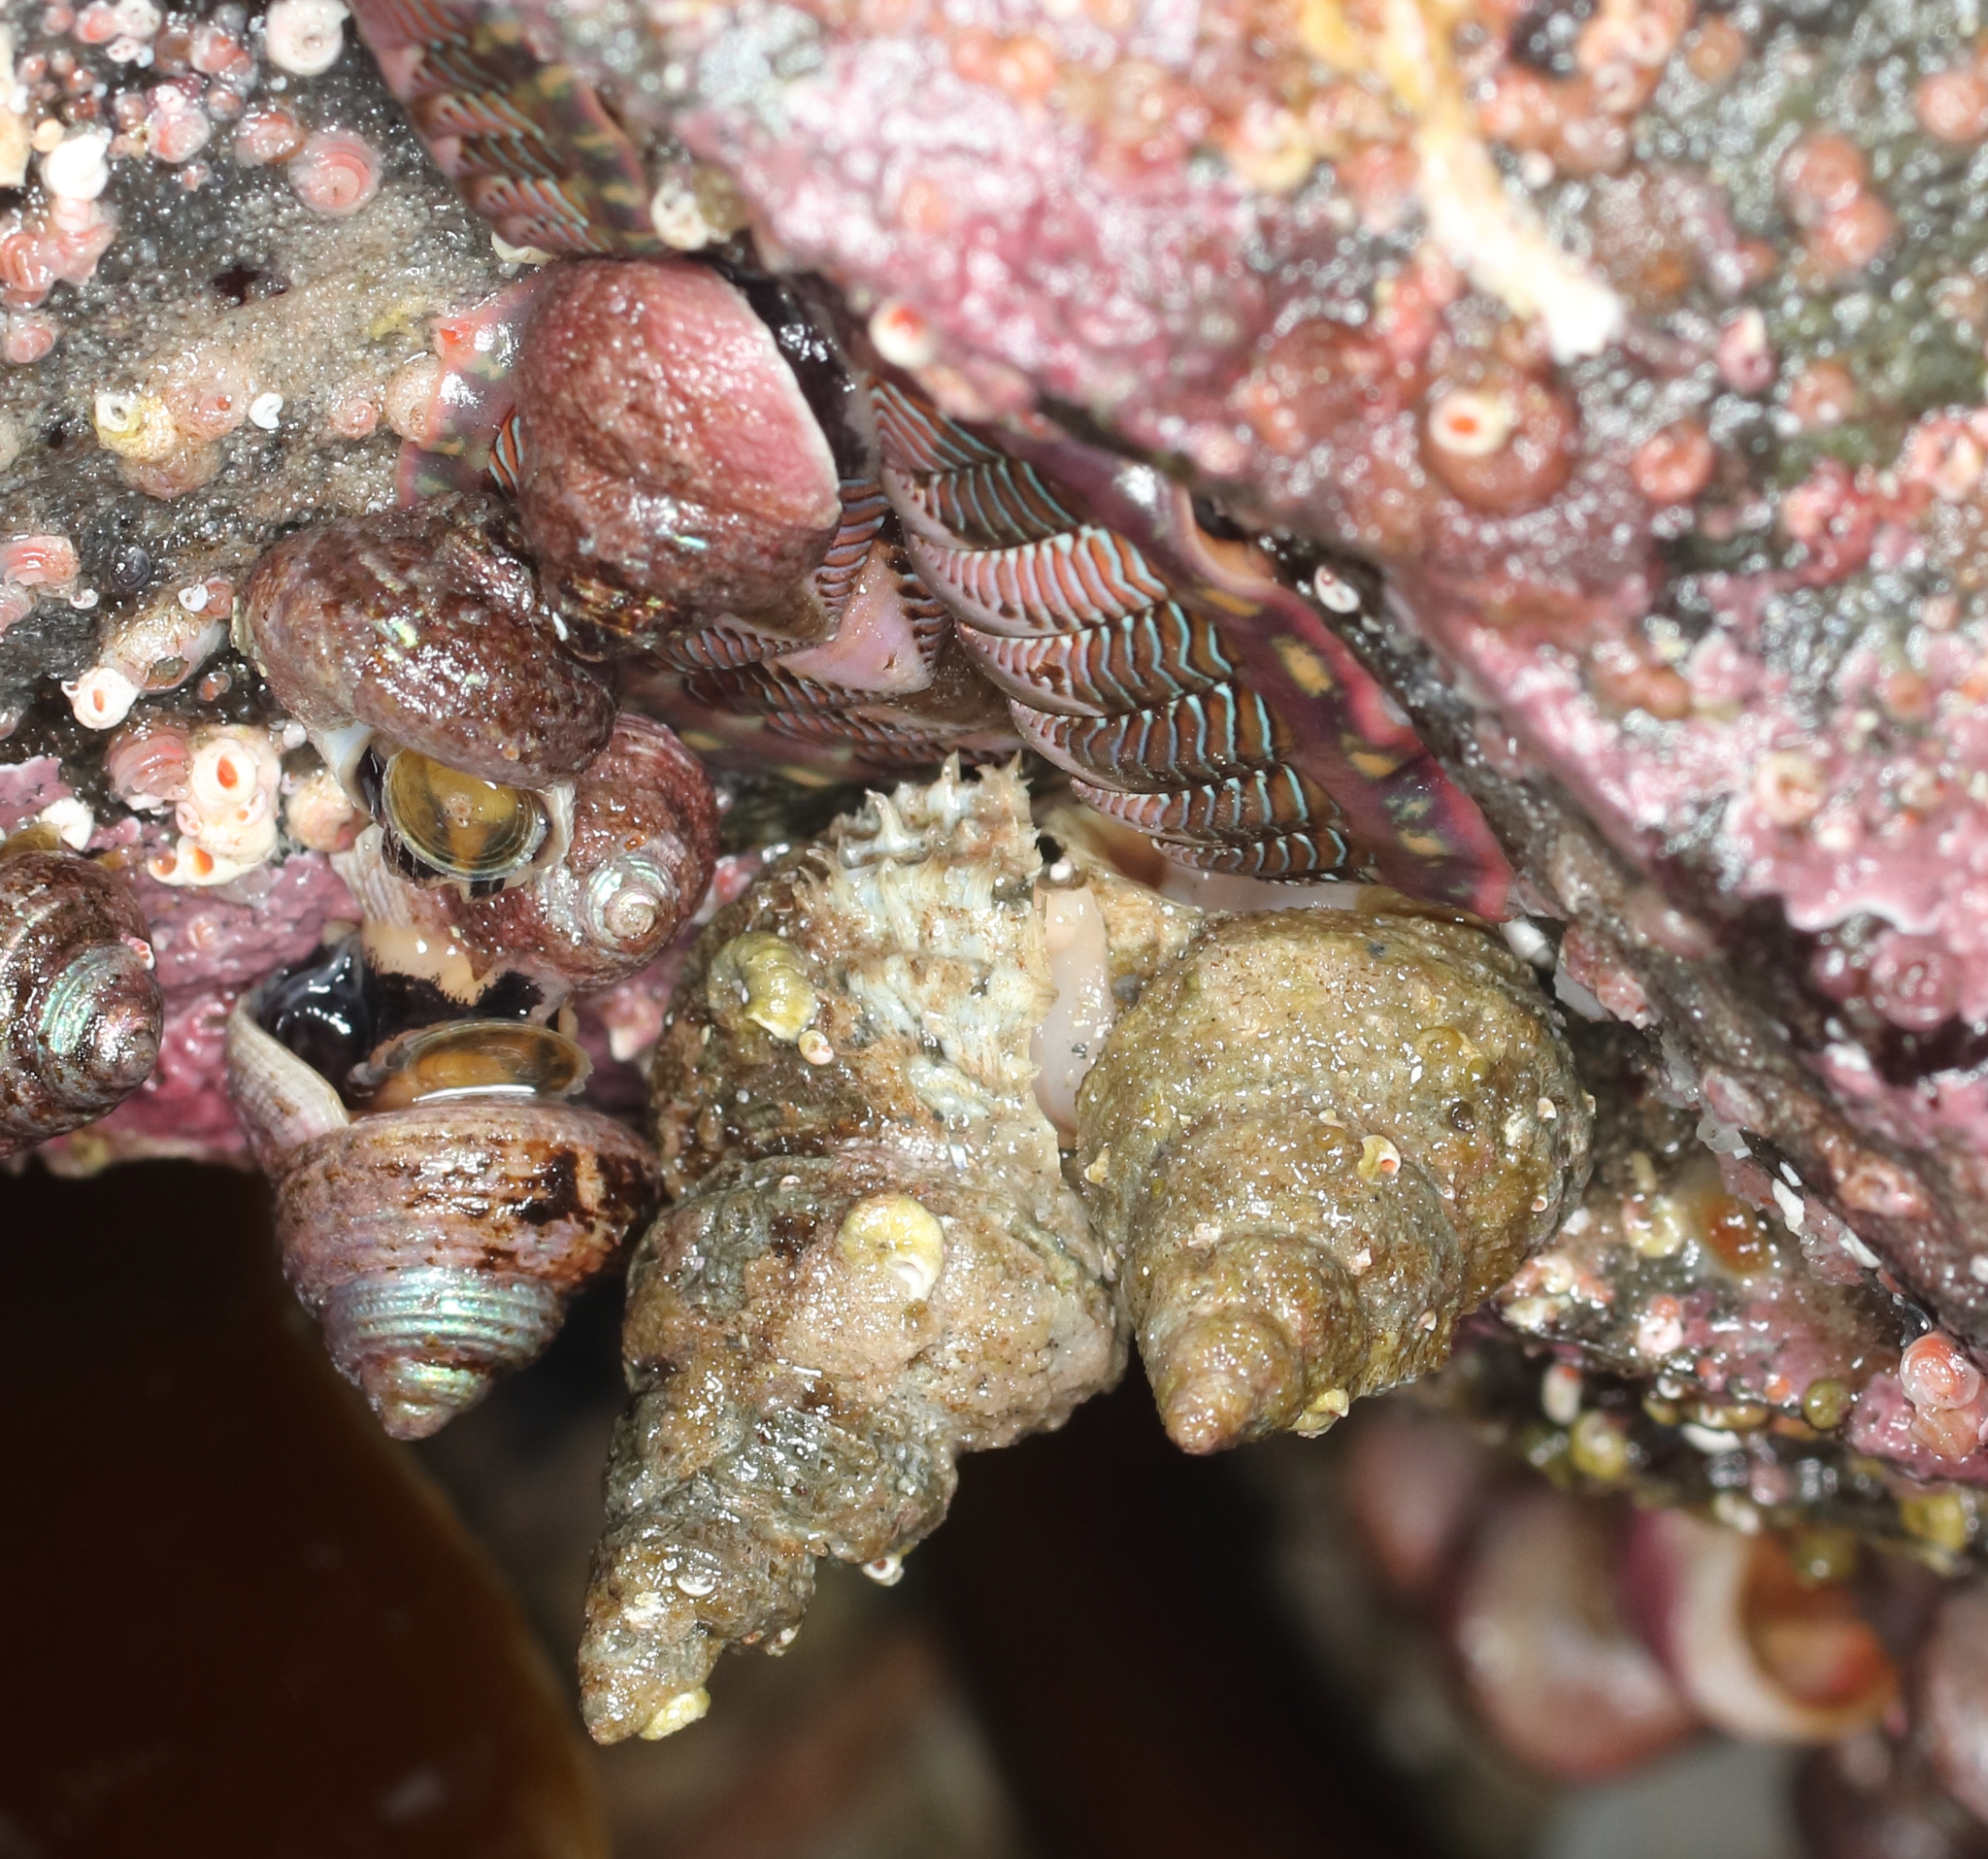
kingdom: Animalia
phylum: Mollusca
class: Gastropoda
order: Littorinimorpha
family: Capulidae
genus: Trichotropis
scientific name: Trichotropis cancellata
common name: Cancellate hairysnail
